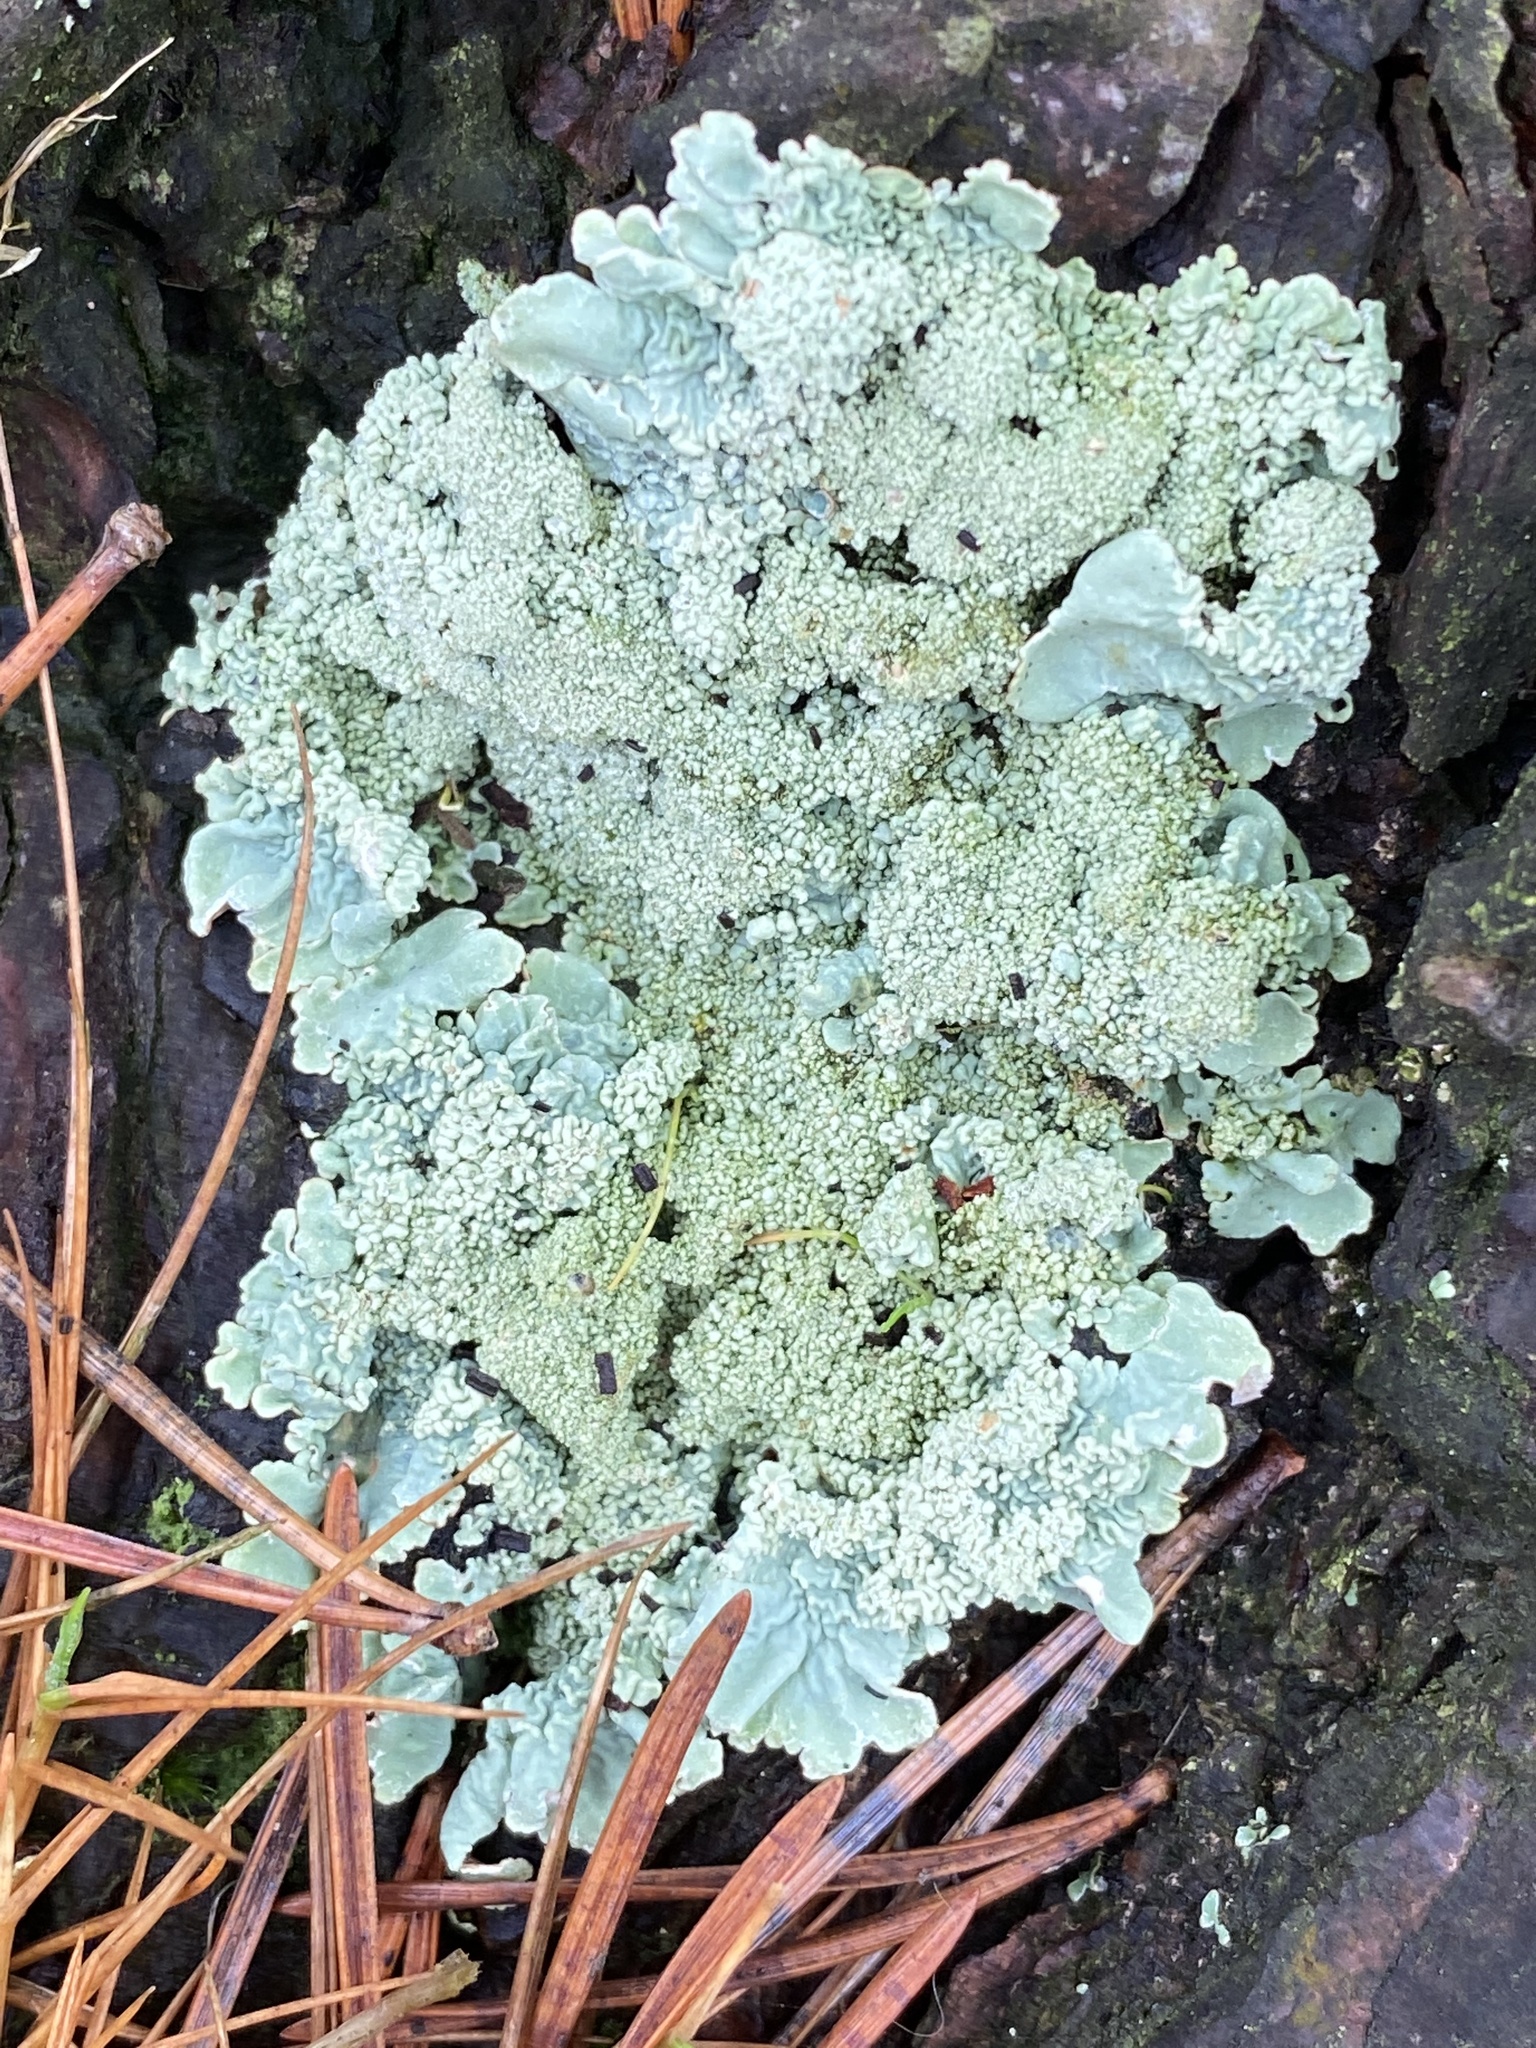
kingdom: Fungi
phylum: Ascomycota
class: Lecanoromycetes
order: Lecanorales
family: Parmeliaceae
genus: Flavoparmelia
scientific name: Flavoparmelia caperata
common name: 40-mile per hour lichen
